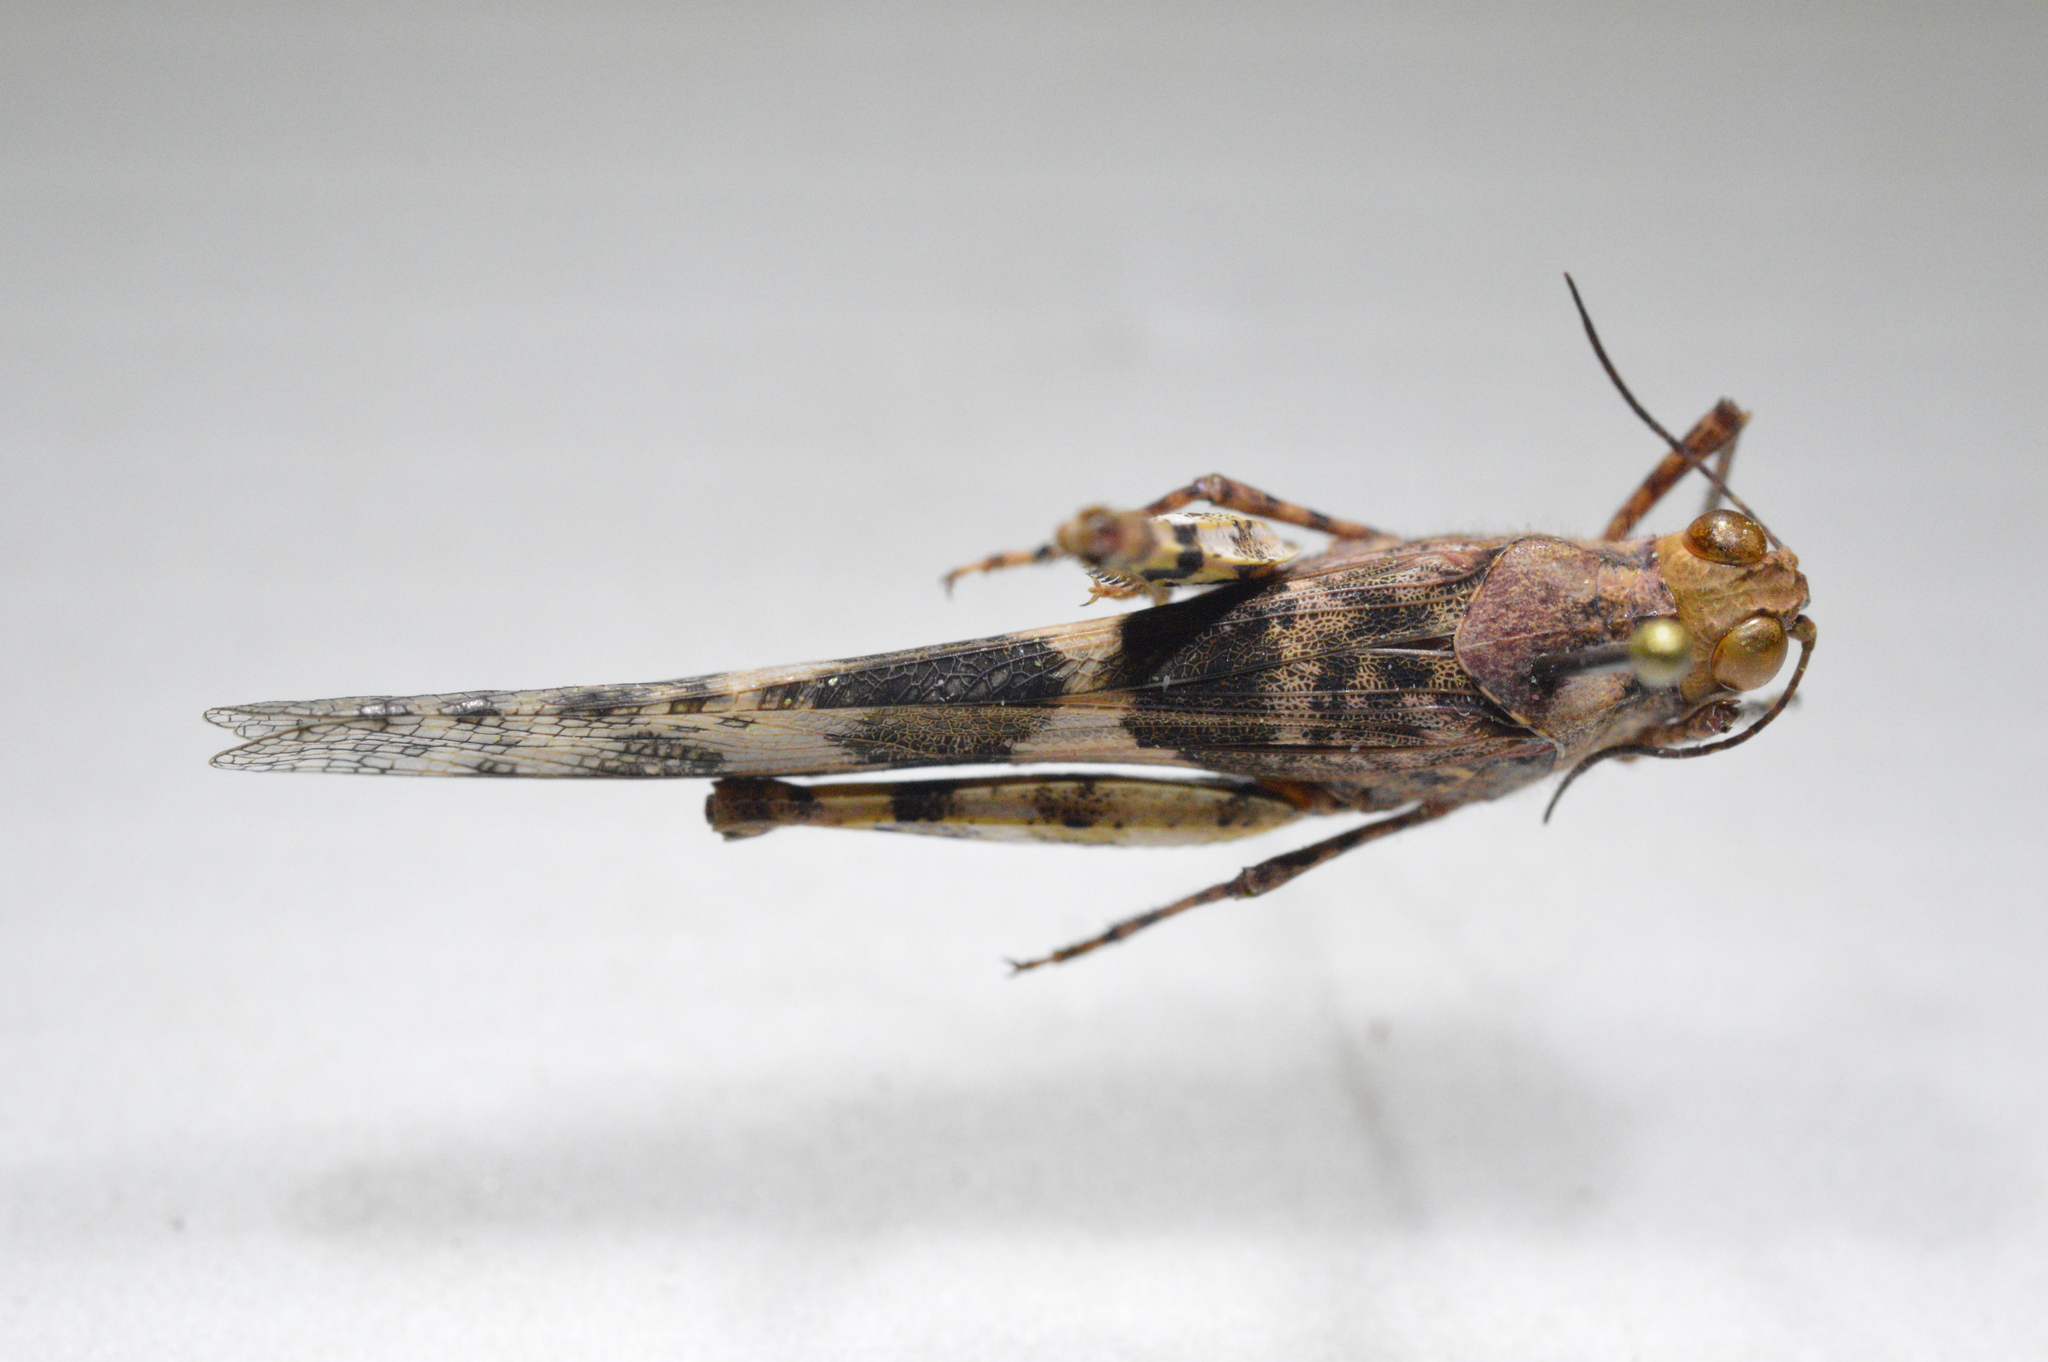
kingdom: Animalia
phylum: Arthropoda
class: Insecta
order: Orthoptera
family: Acrididae
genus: Trimerotropis
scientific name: Trimerotropis pallidipennis
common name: Pallid-winged grasshopper
